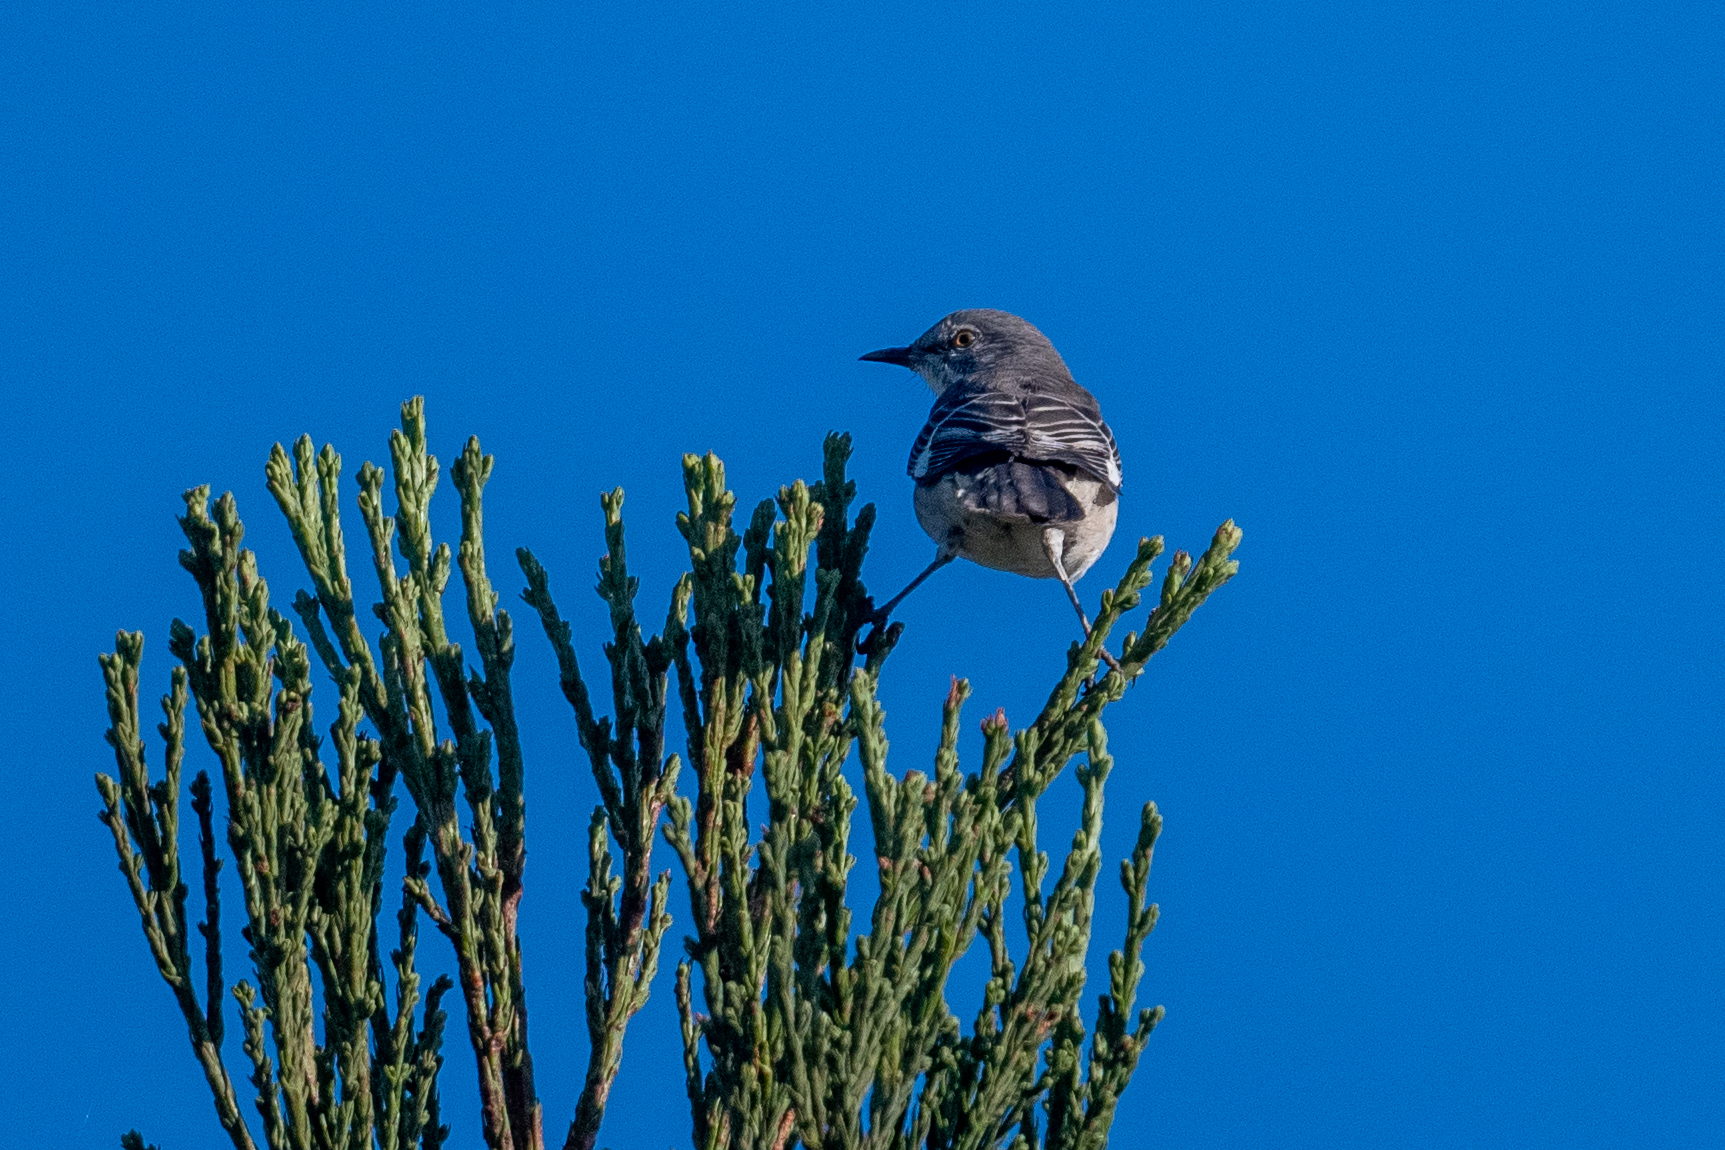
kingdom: Animalia
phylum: Chordata
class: Aves
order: Passeriformes
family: Mimidae
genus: Mimus
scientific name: Mimus polyglottos
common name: Northern mockingbird
